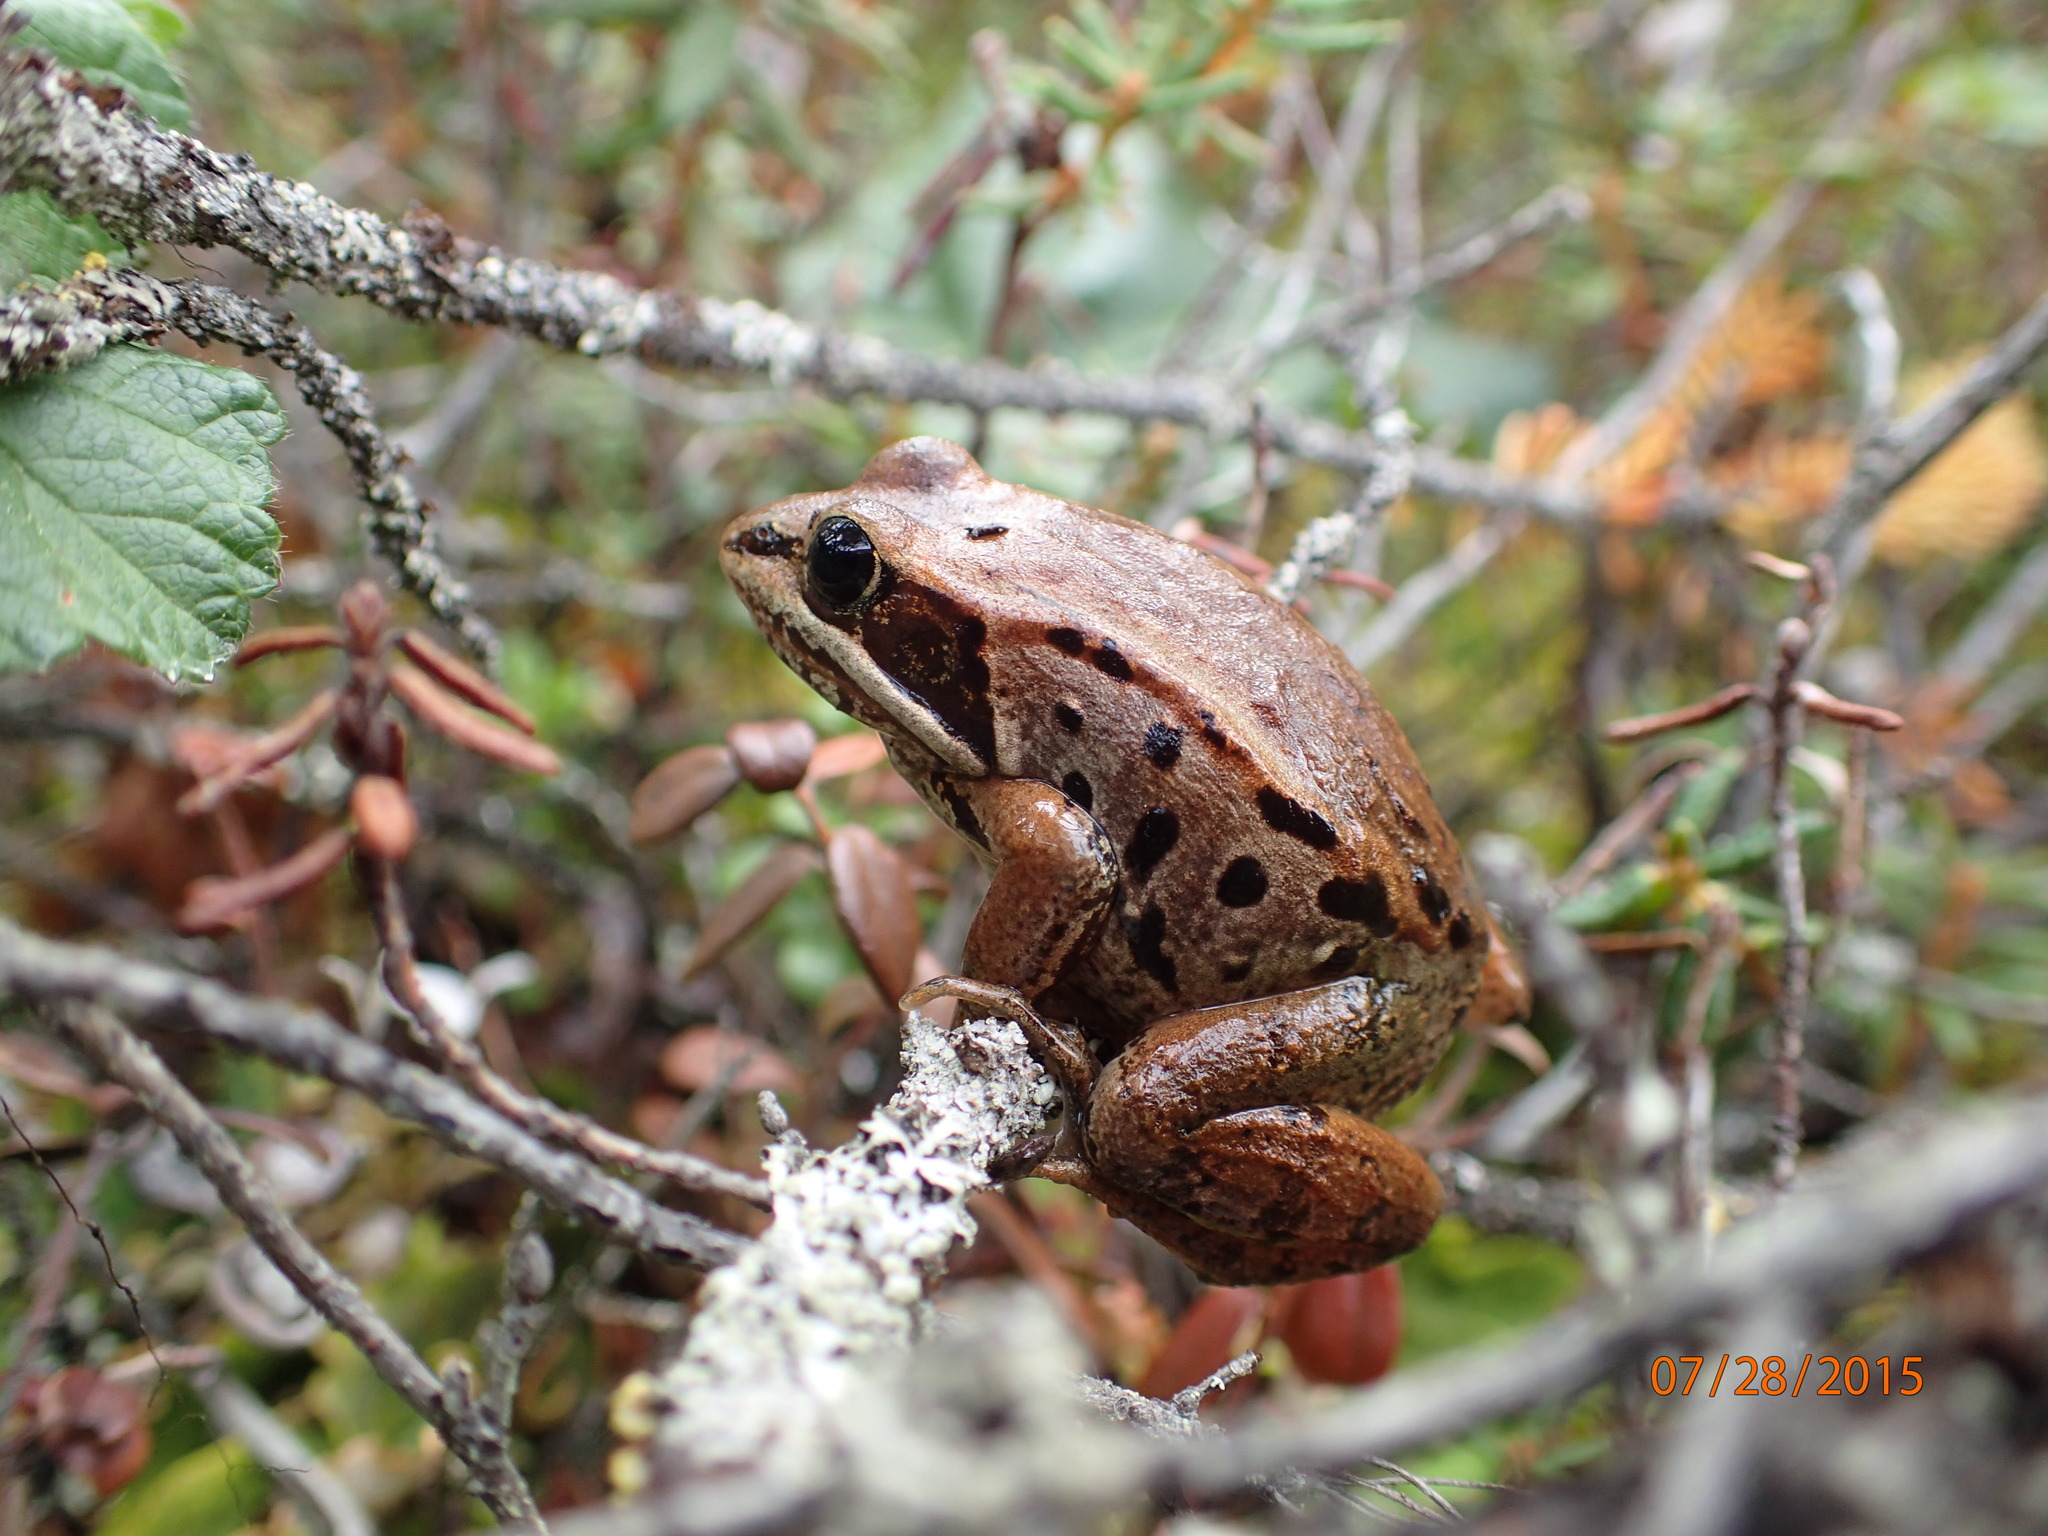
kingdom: Animalia
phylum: Chordata
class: Amphibia
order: Anura
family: Ranidae
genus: Lithobates
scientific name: Lithobates sylvaticus
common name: Wood frog
